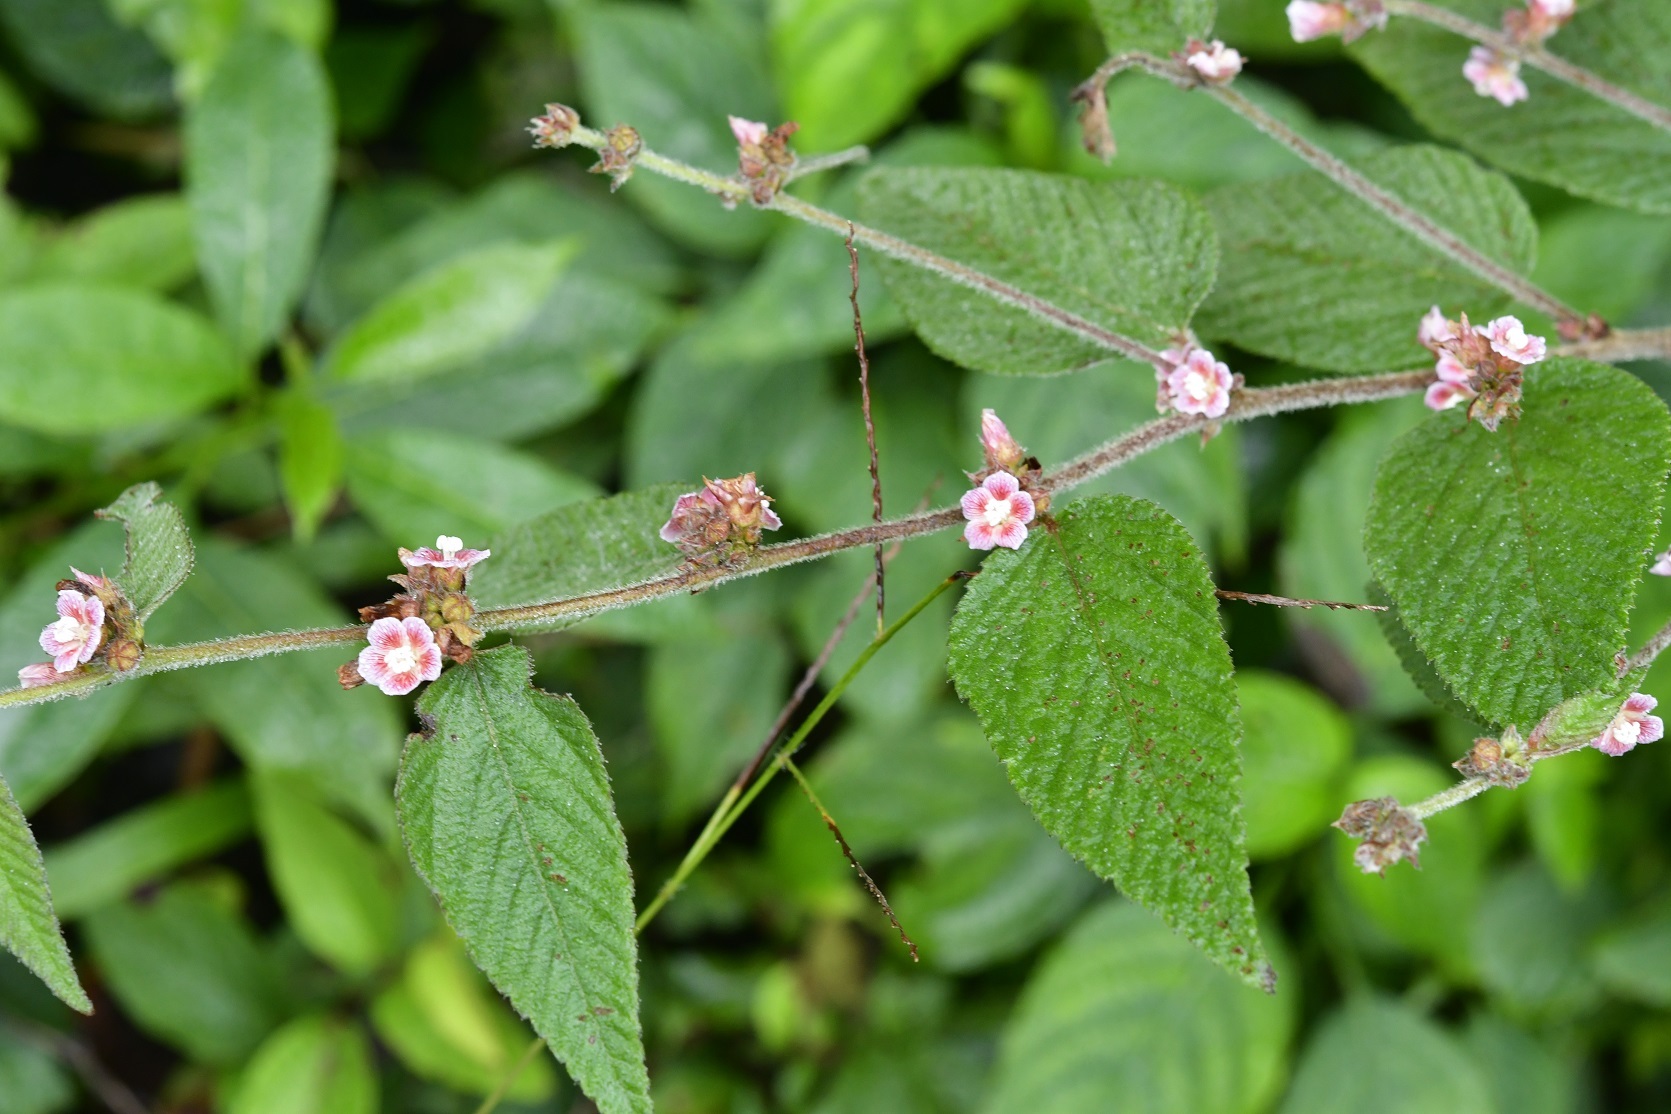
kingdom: Plantae
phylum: Tracheophyta
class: Magnoliopsida
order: Malvales
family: Malvaceae
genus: Melochia
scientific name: Melochia nodiflora
